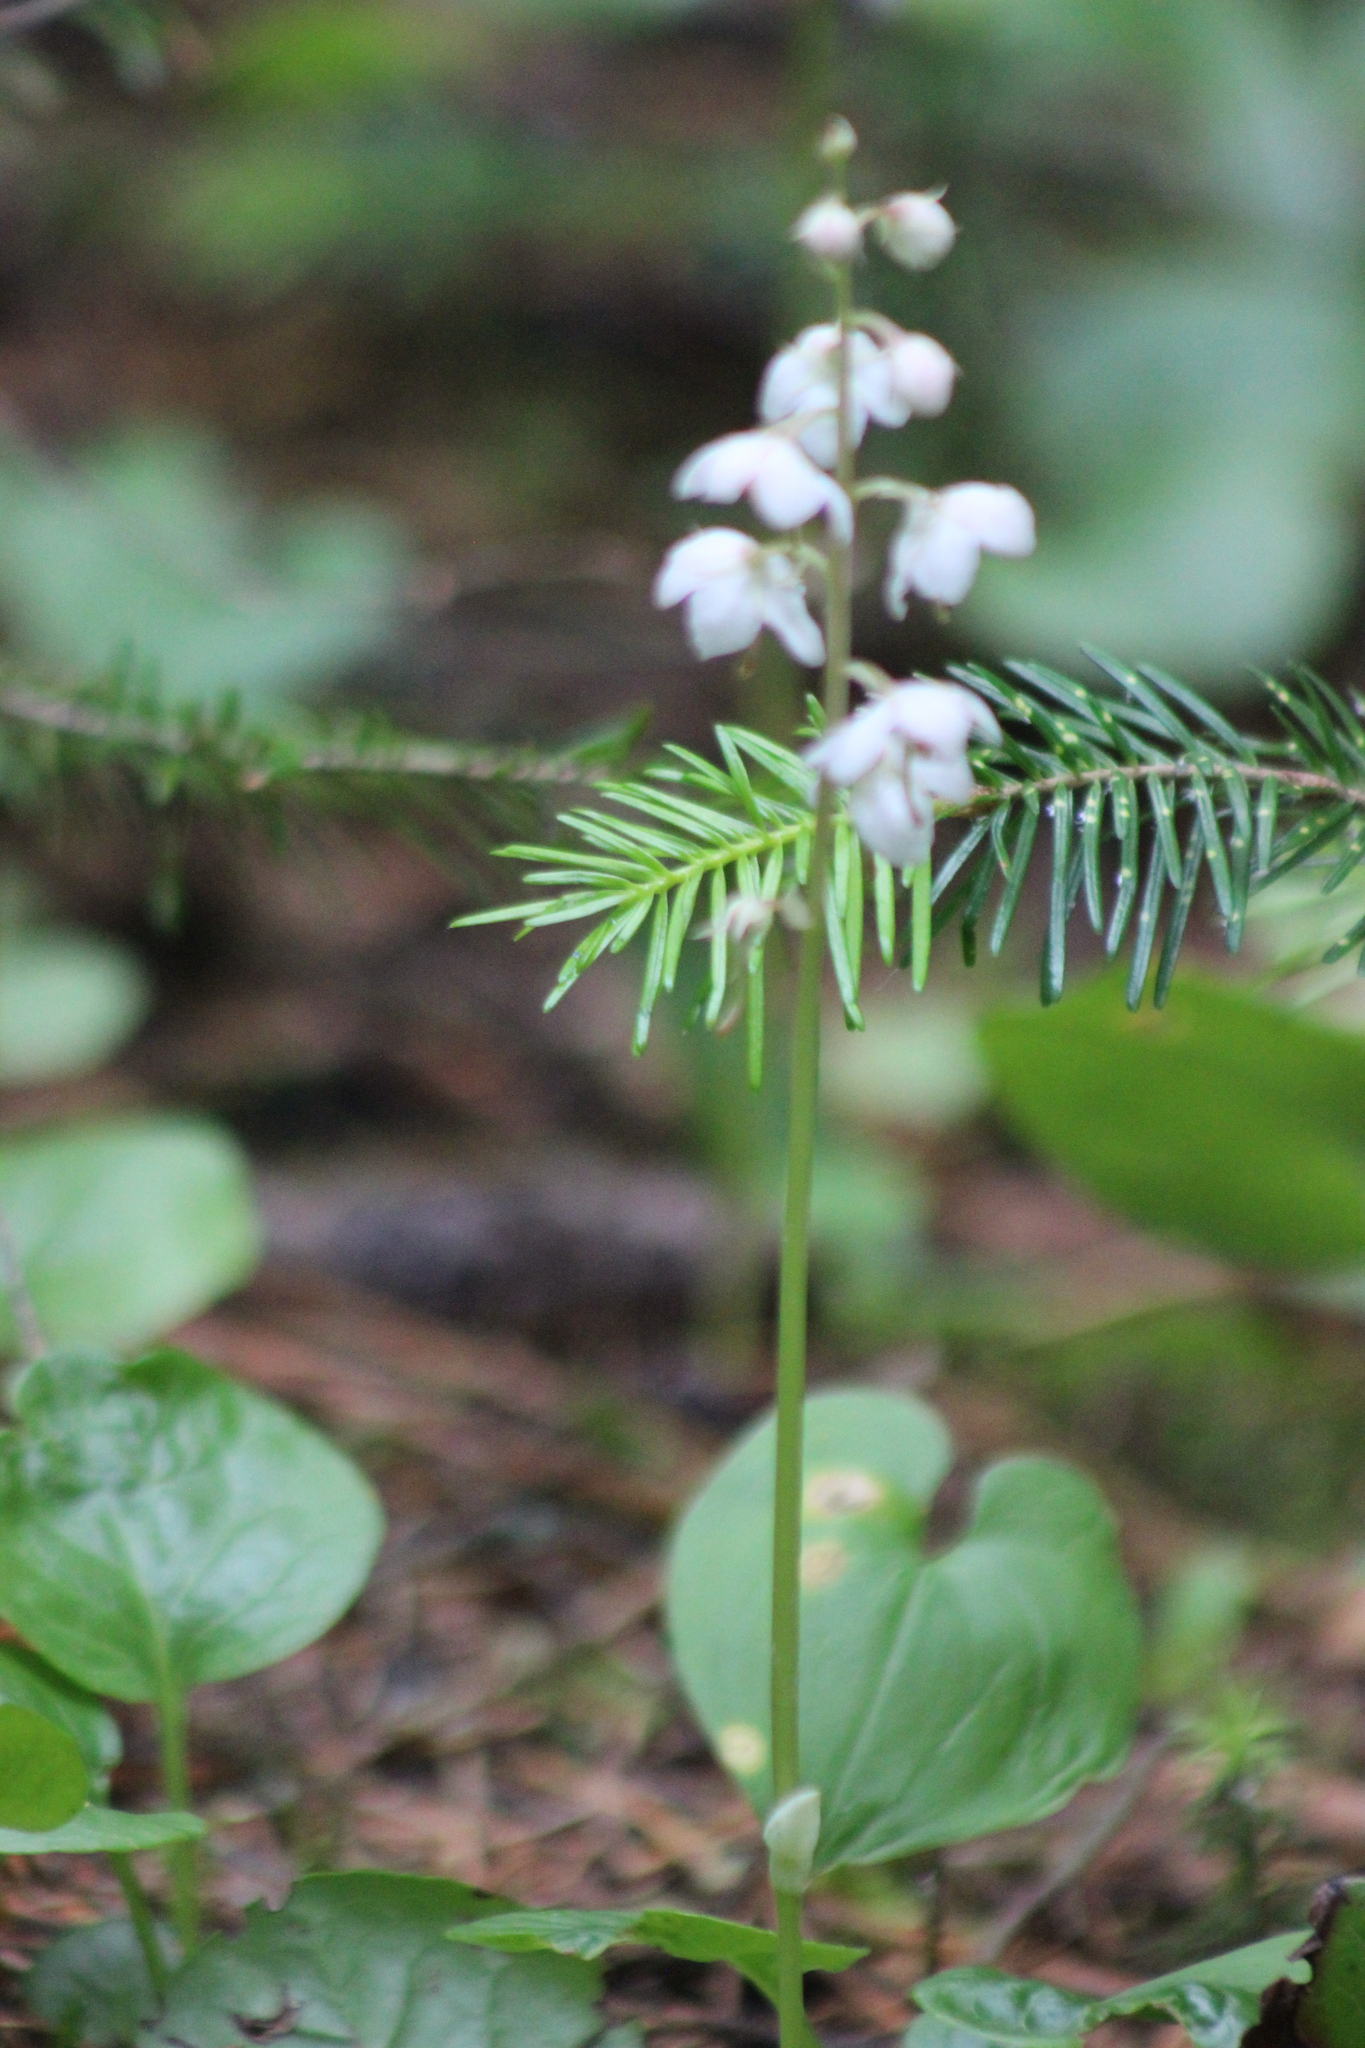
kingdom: Plantae
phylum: Tracheophyta
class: Magnoliopsida
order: Ericales
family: Ericaceae
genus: Pyrola
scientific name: Pyrola rotundifolia
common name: Round-leaved wintergreen
